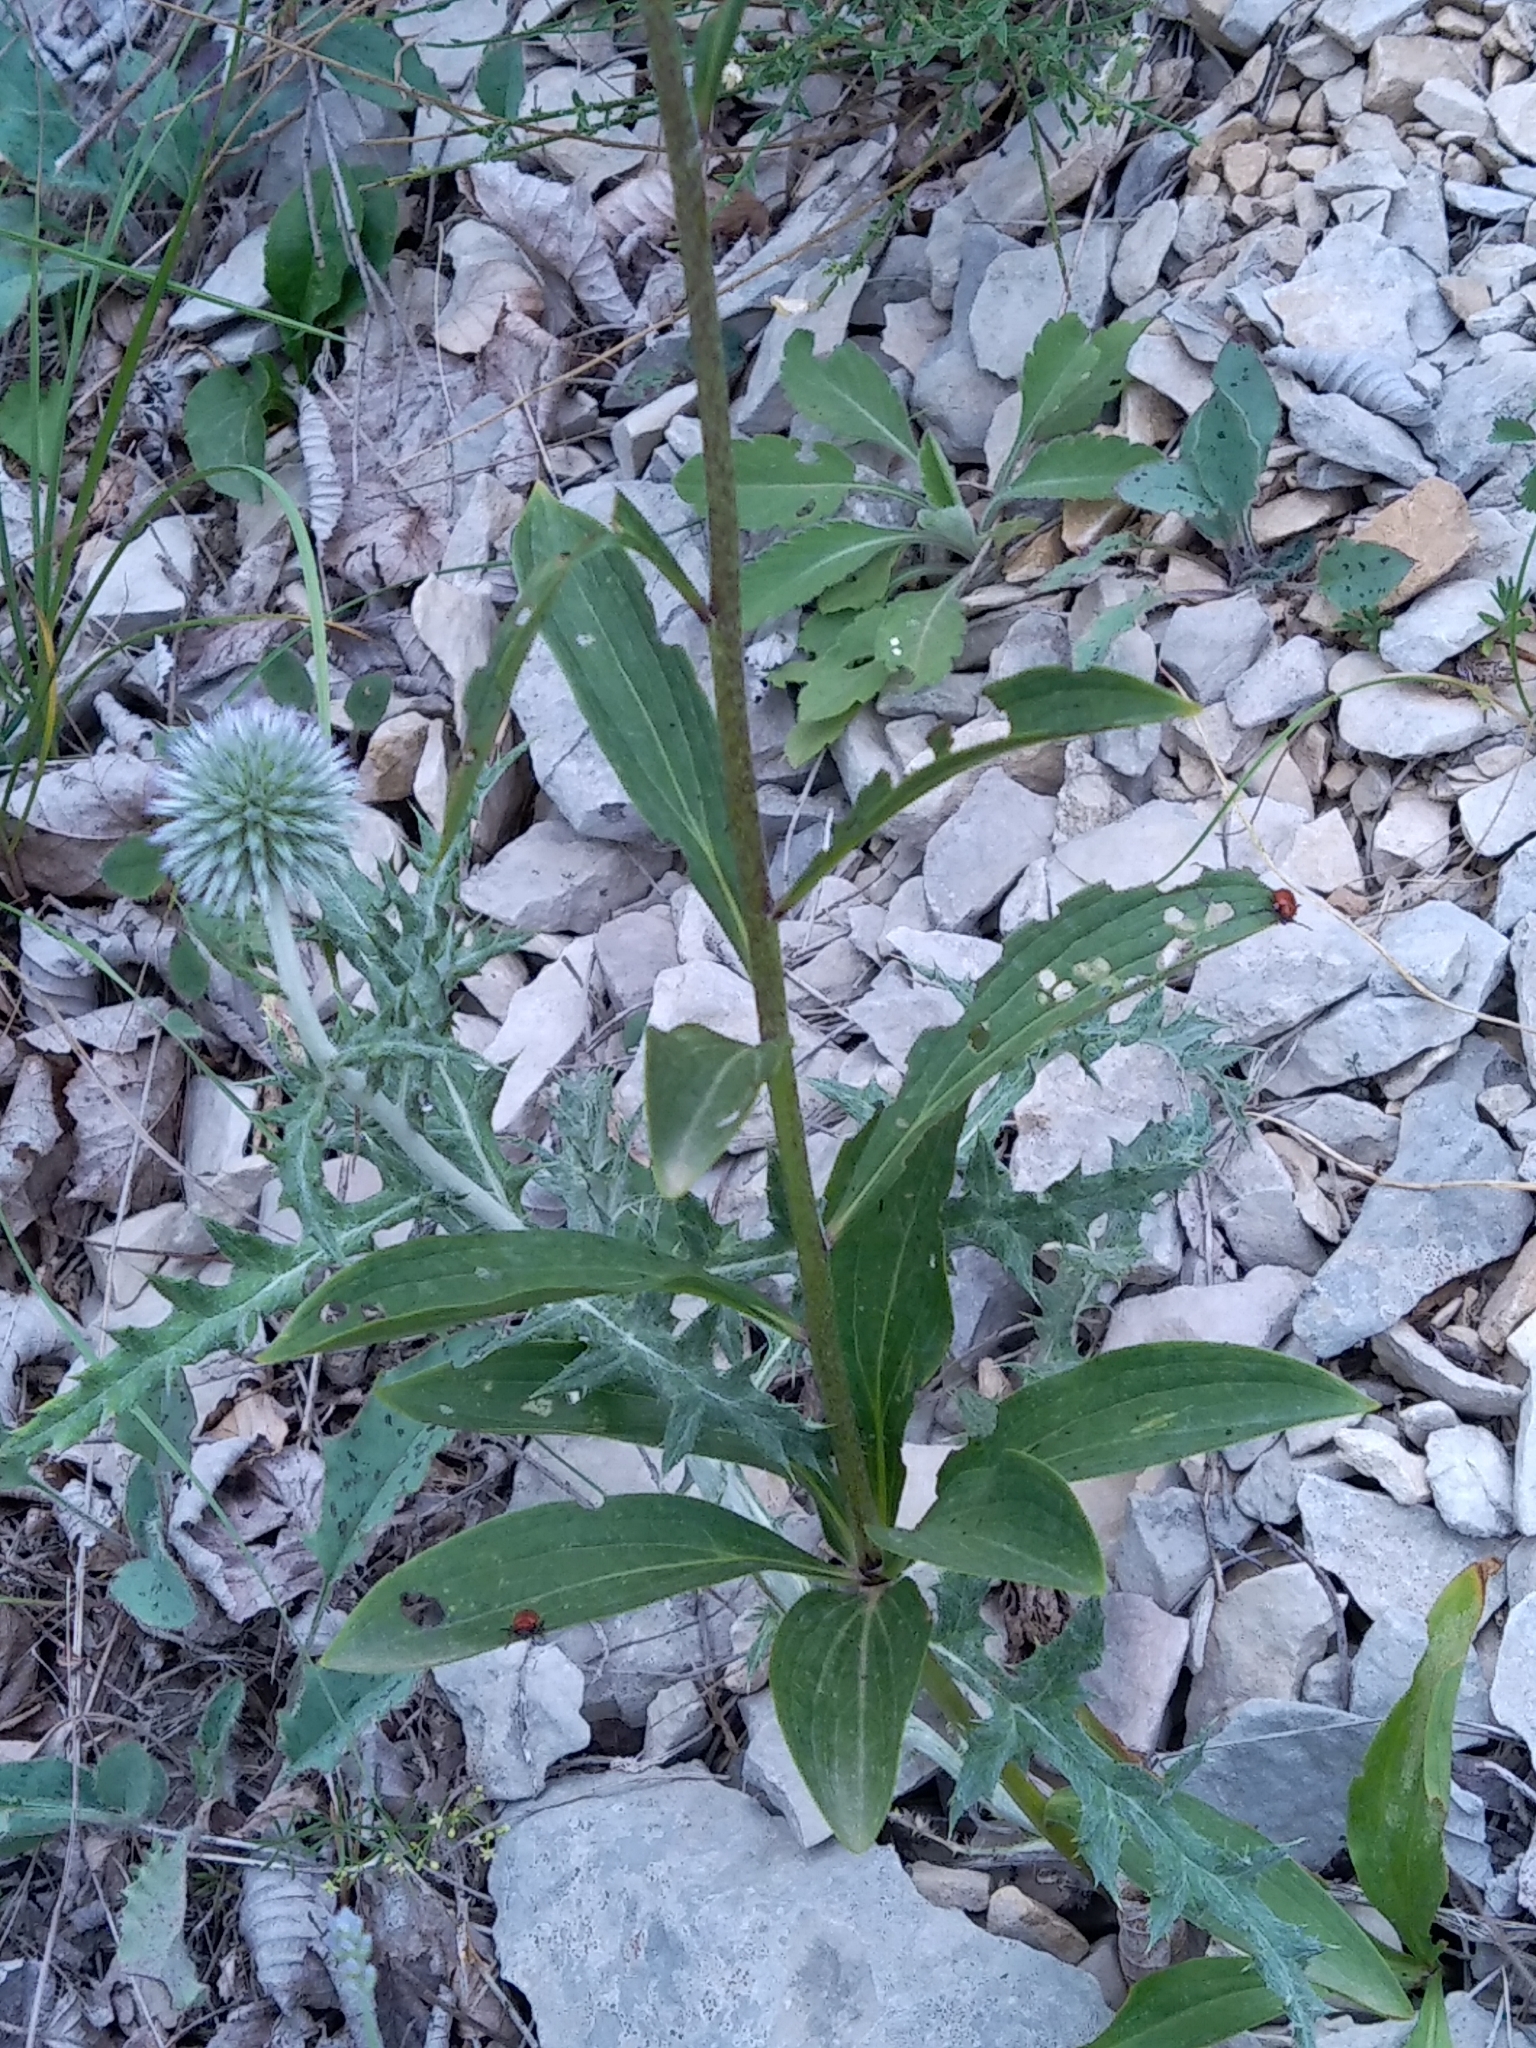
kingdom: Plantae
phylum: Tracheophyta
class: Liliopsida
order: Liliales
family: Liliaceae
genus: Lilium
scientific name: Lilium martagon
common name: Martagon lily
